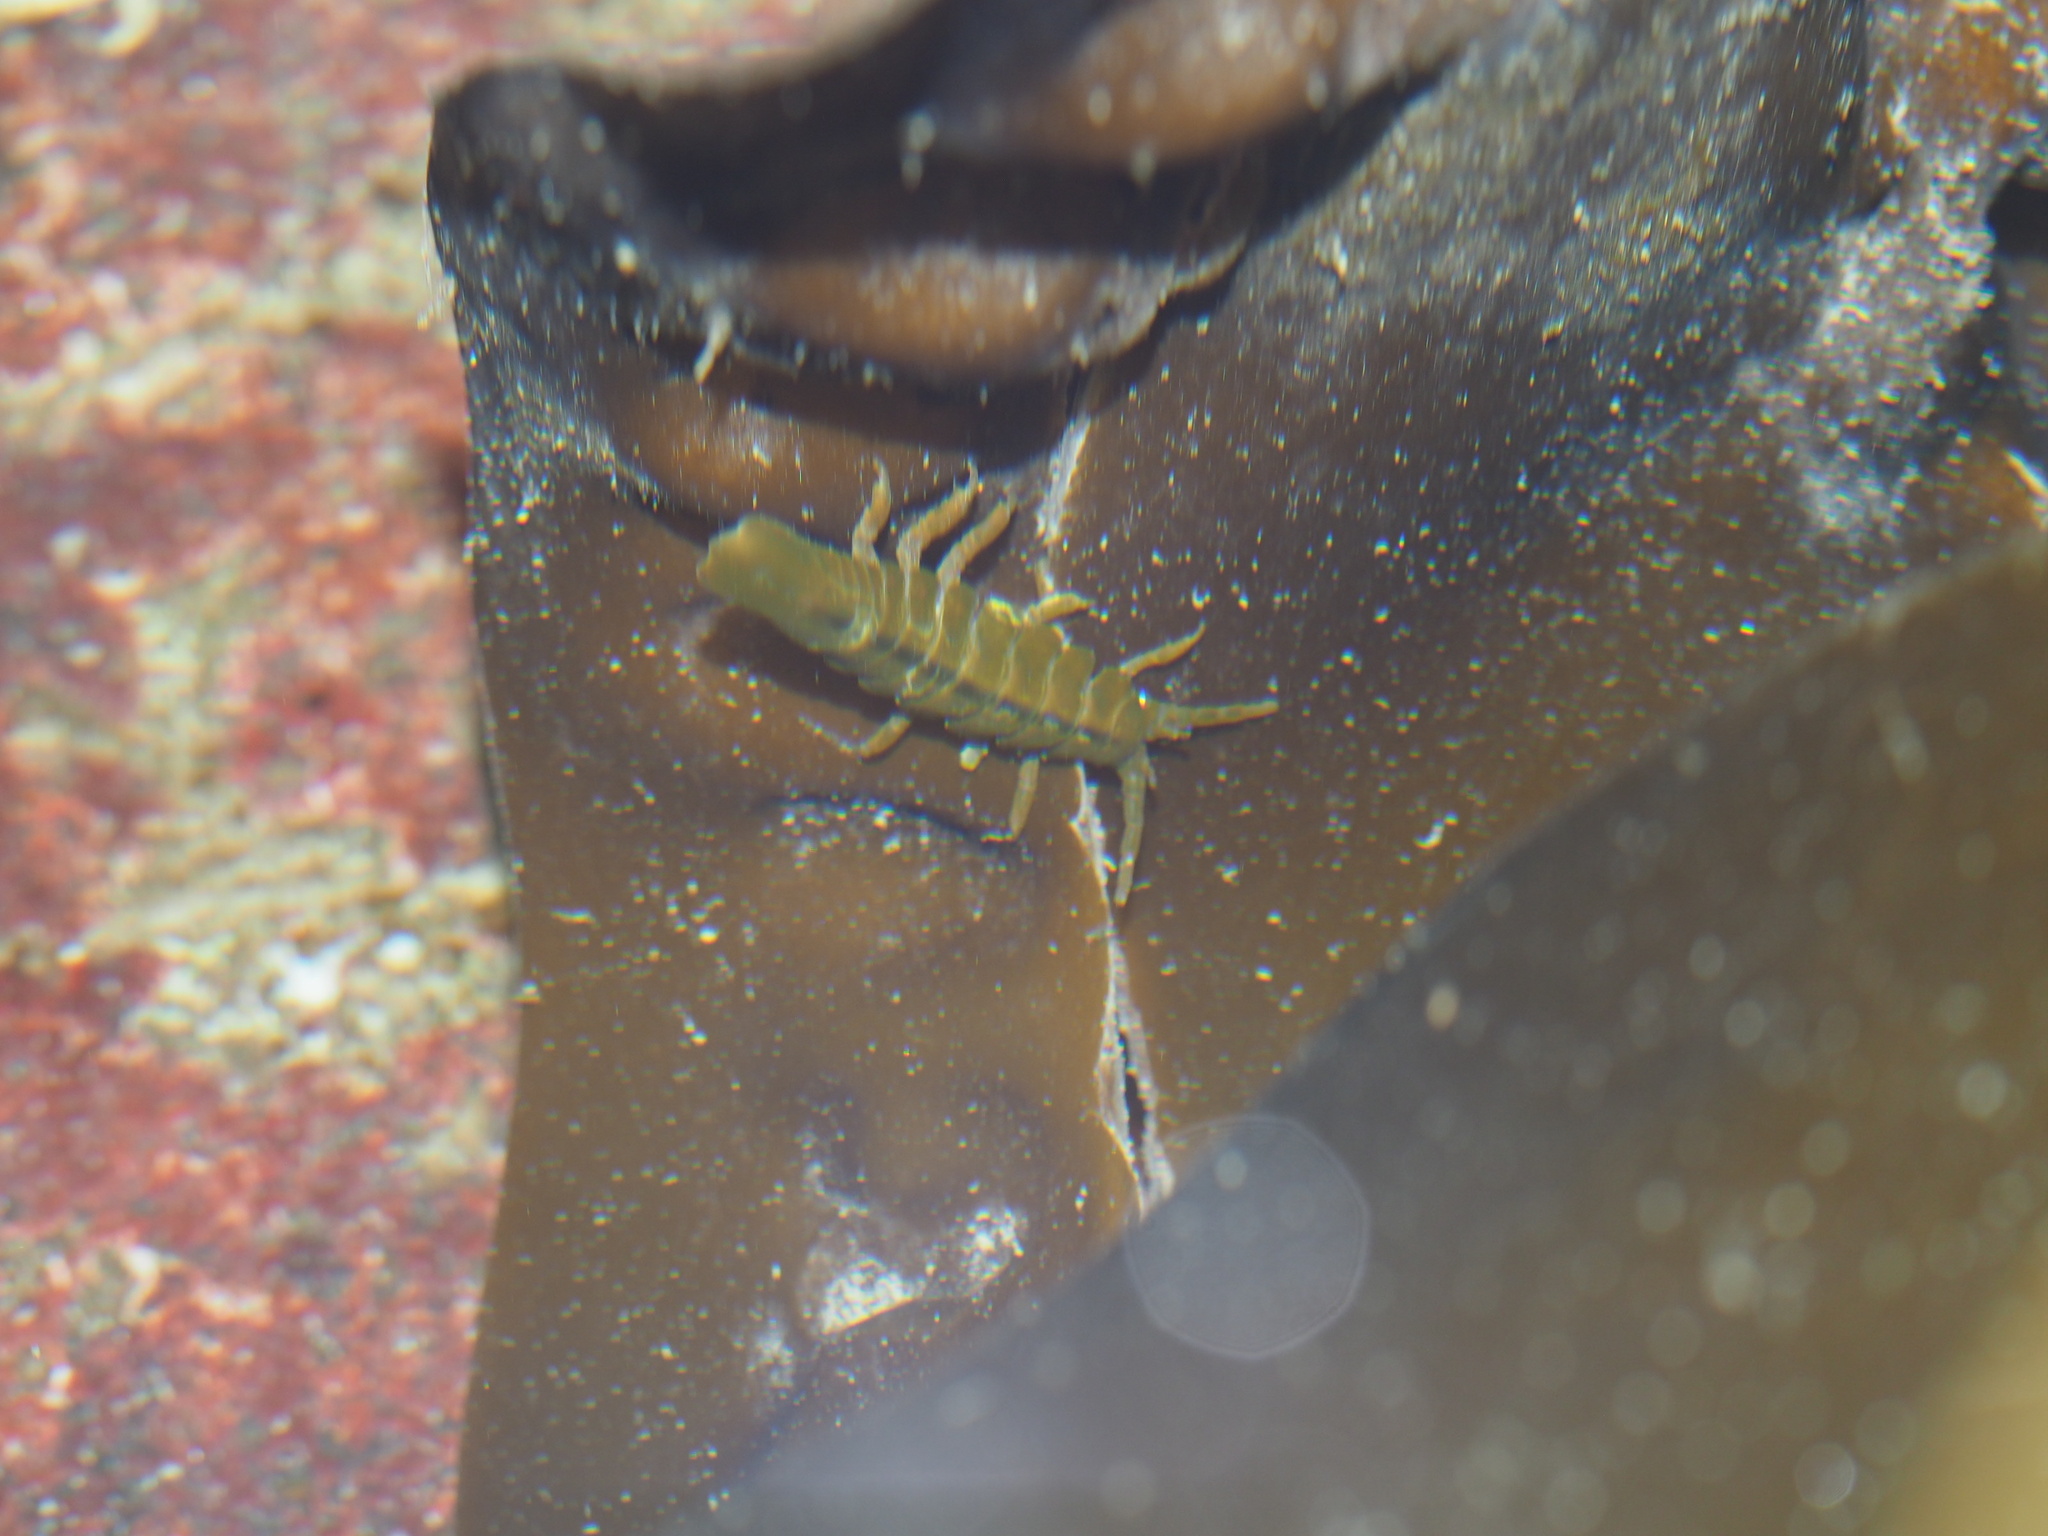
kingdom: Animalia
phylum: Arthropoda
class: Malacostraca
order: Isopoda
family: Idoteidae
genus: Pentidotea
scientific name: Pentidotea stenops
